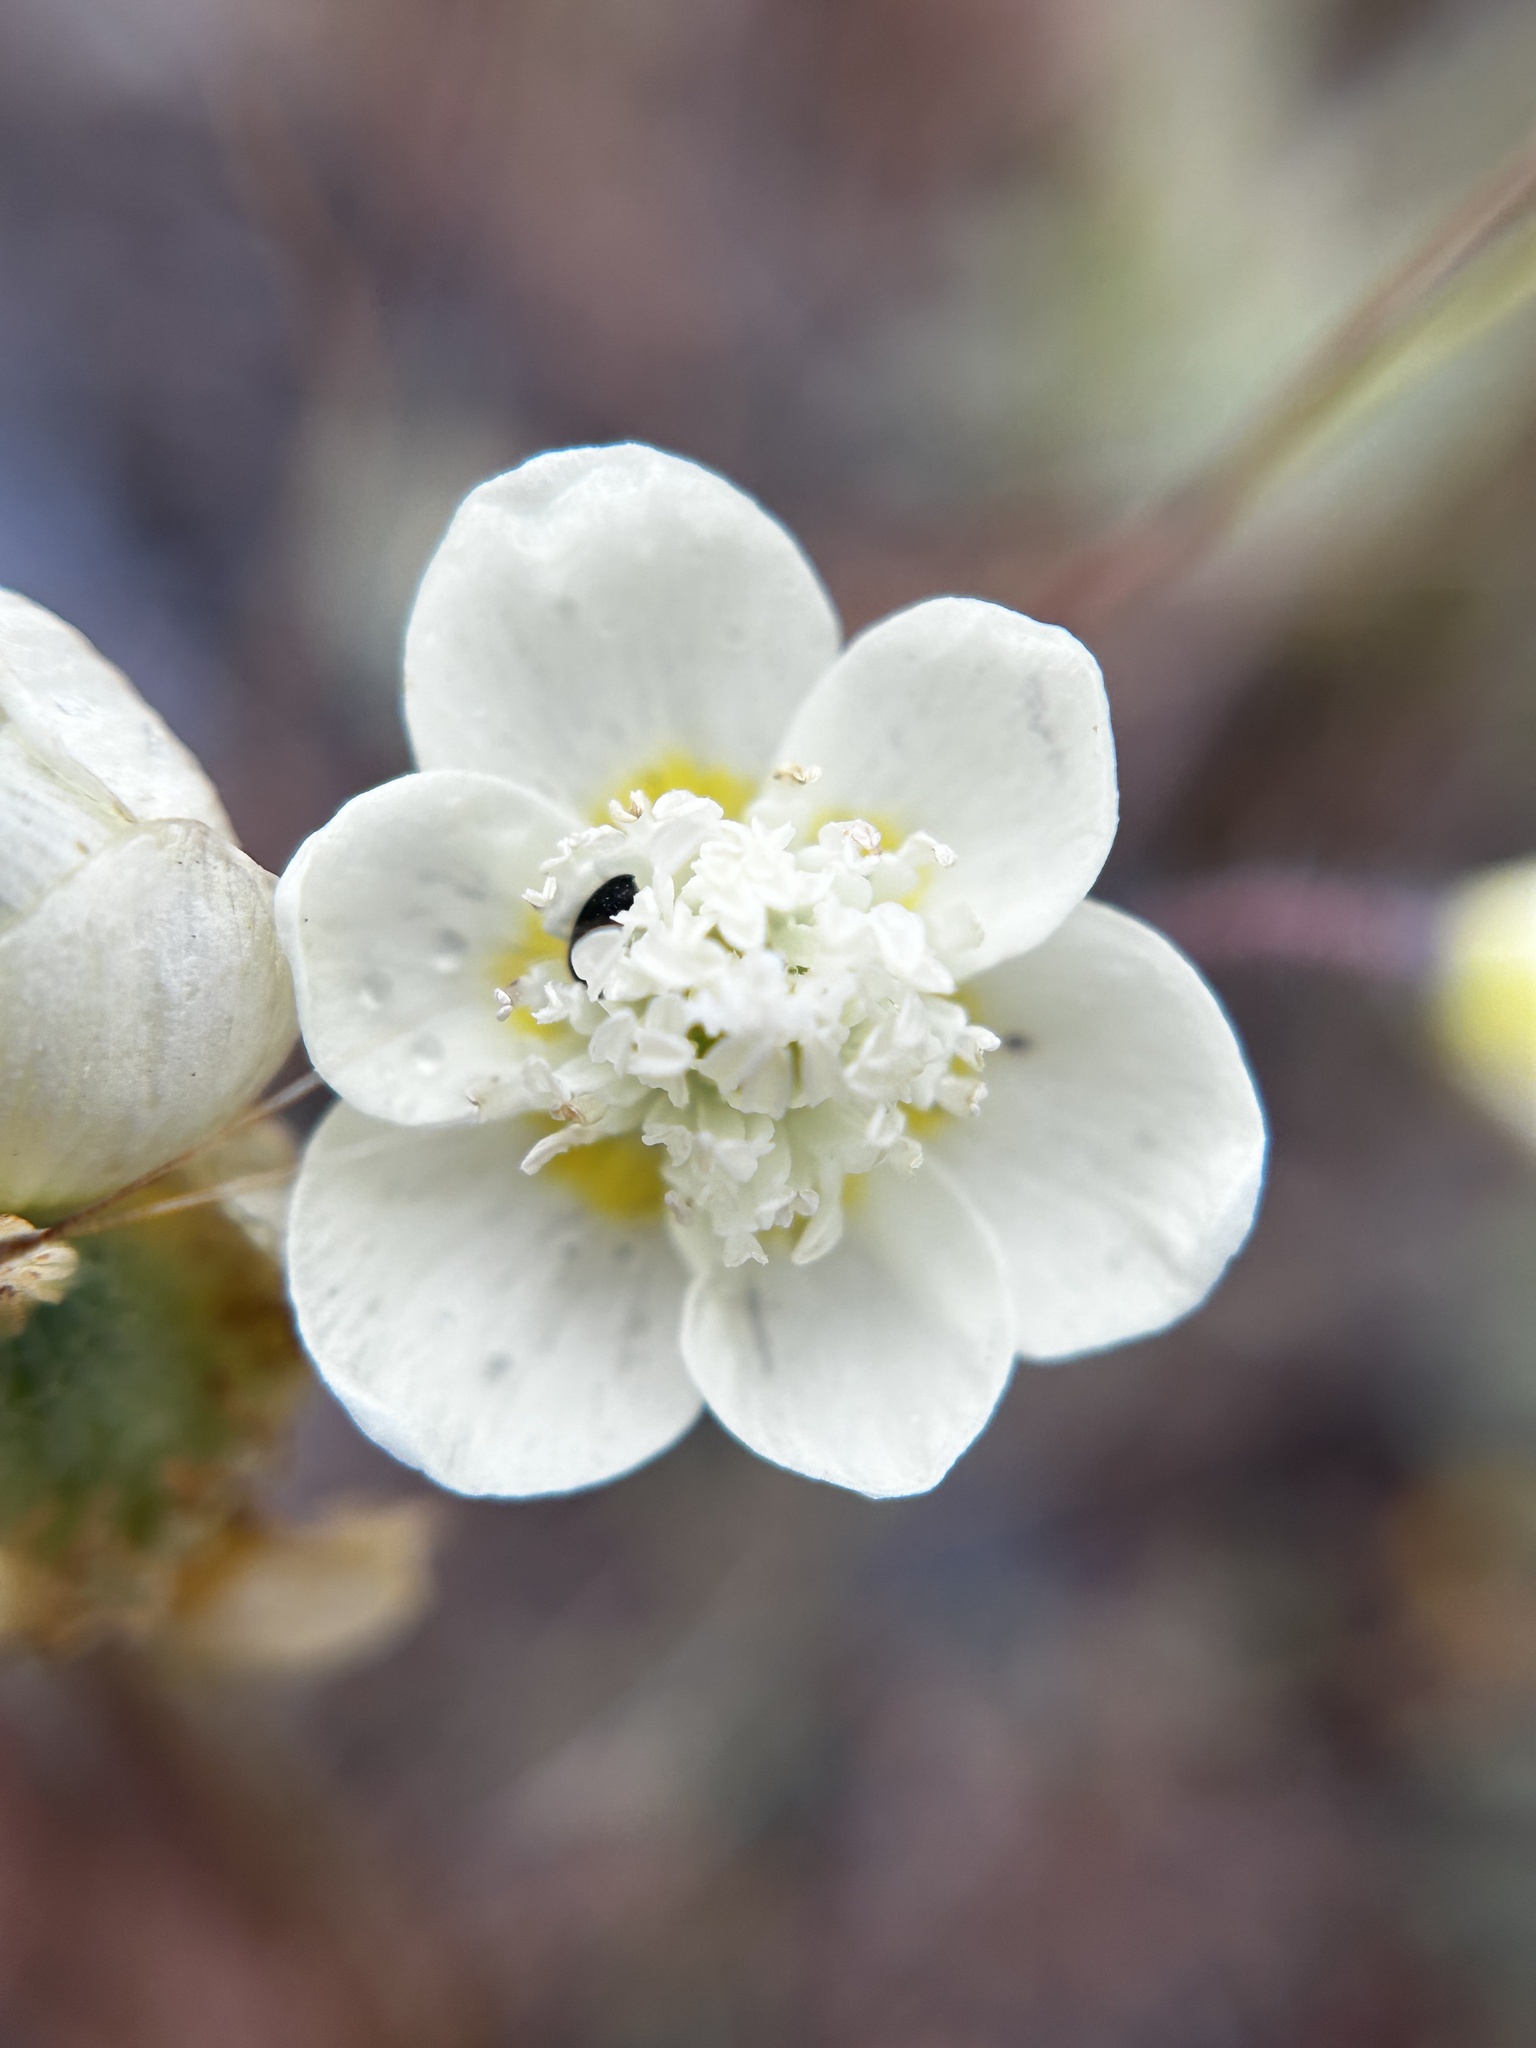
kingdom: Plantae
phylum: Tracheophyta
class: Magnoliopsida
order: Ranunculales
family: Papaveraceae
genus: Platystemon
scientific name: Platystemon californicus
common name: Cream-cups
